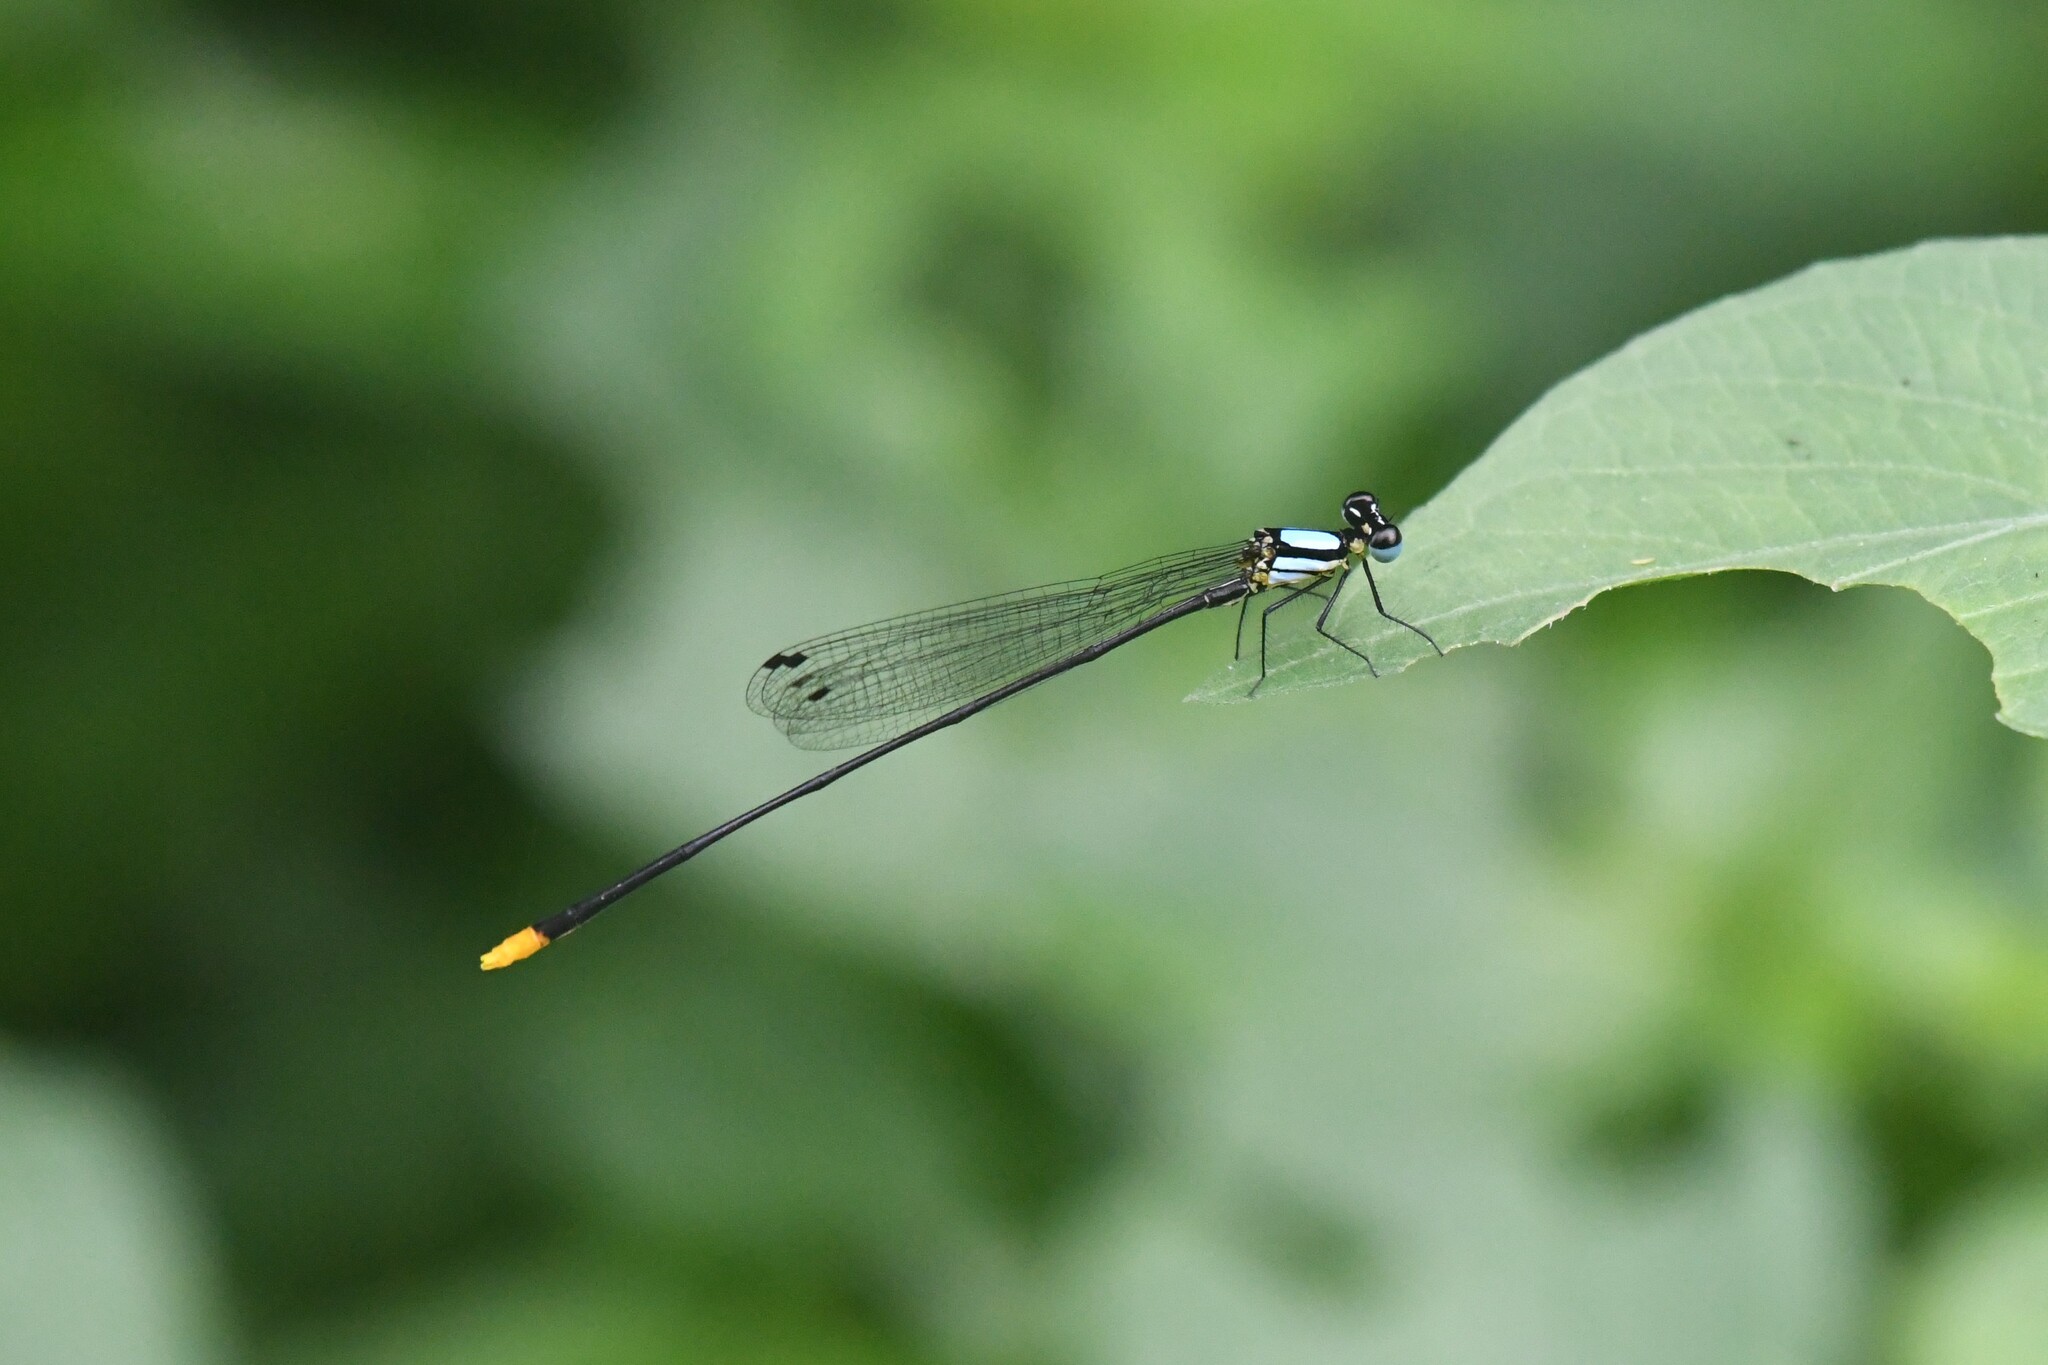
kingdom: Animalia
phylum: Arthropoda
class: Insecta
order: Odonata
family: Platycnemididae
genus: Coeliccia
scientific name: Coeliccia poungyi
